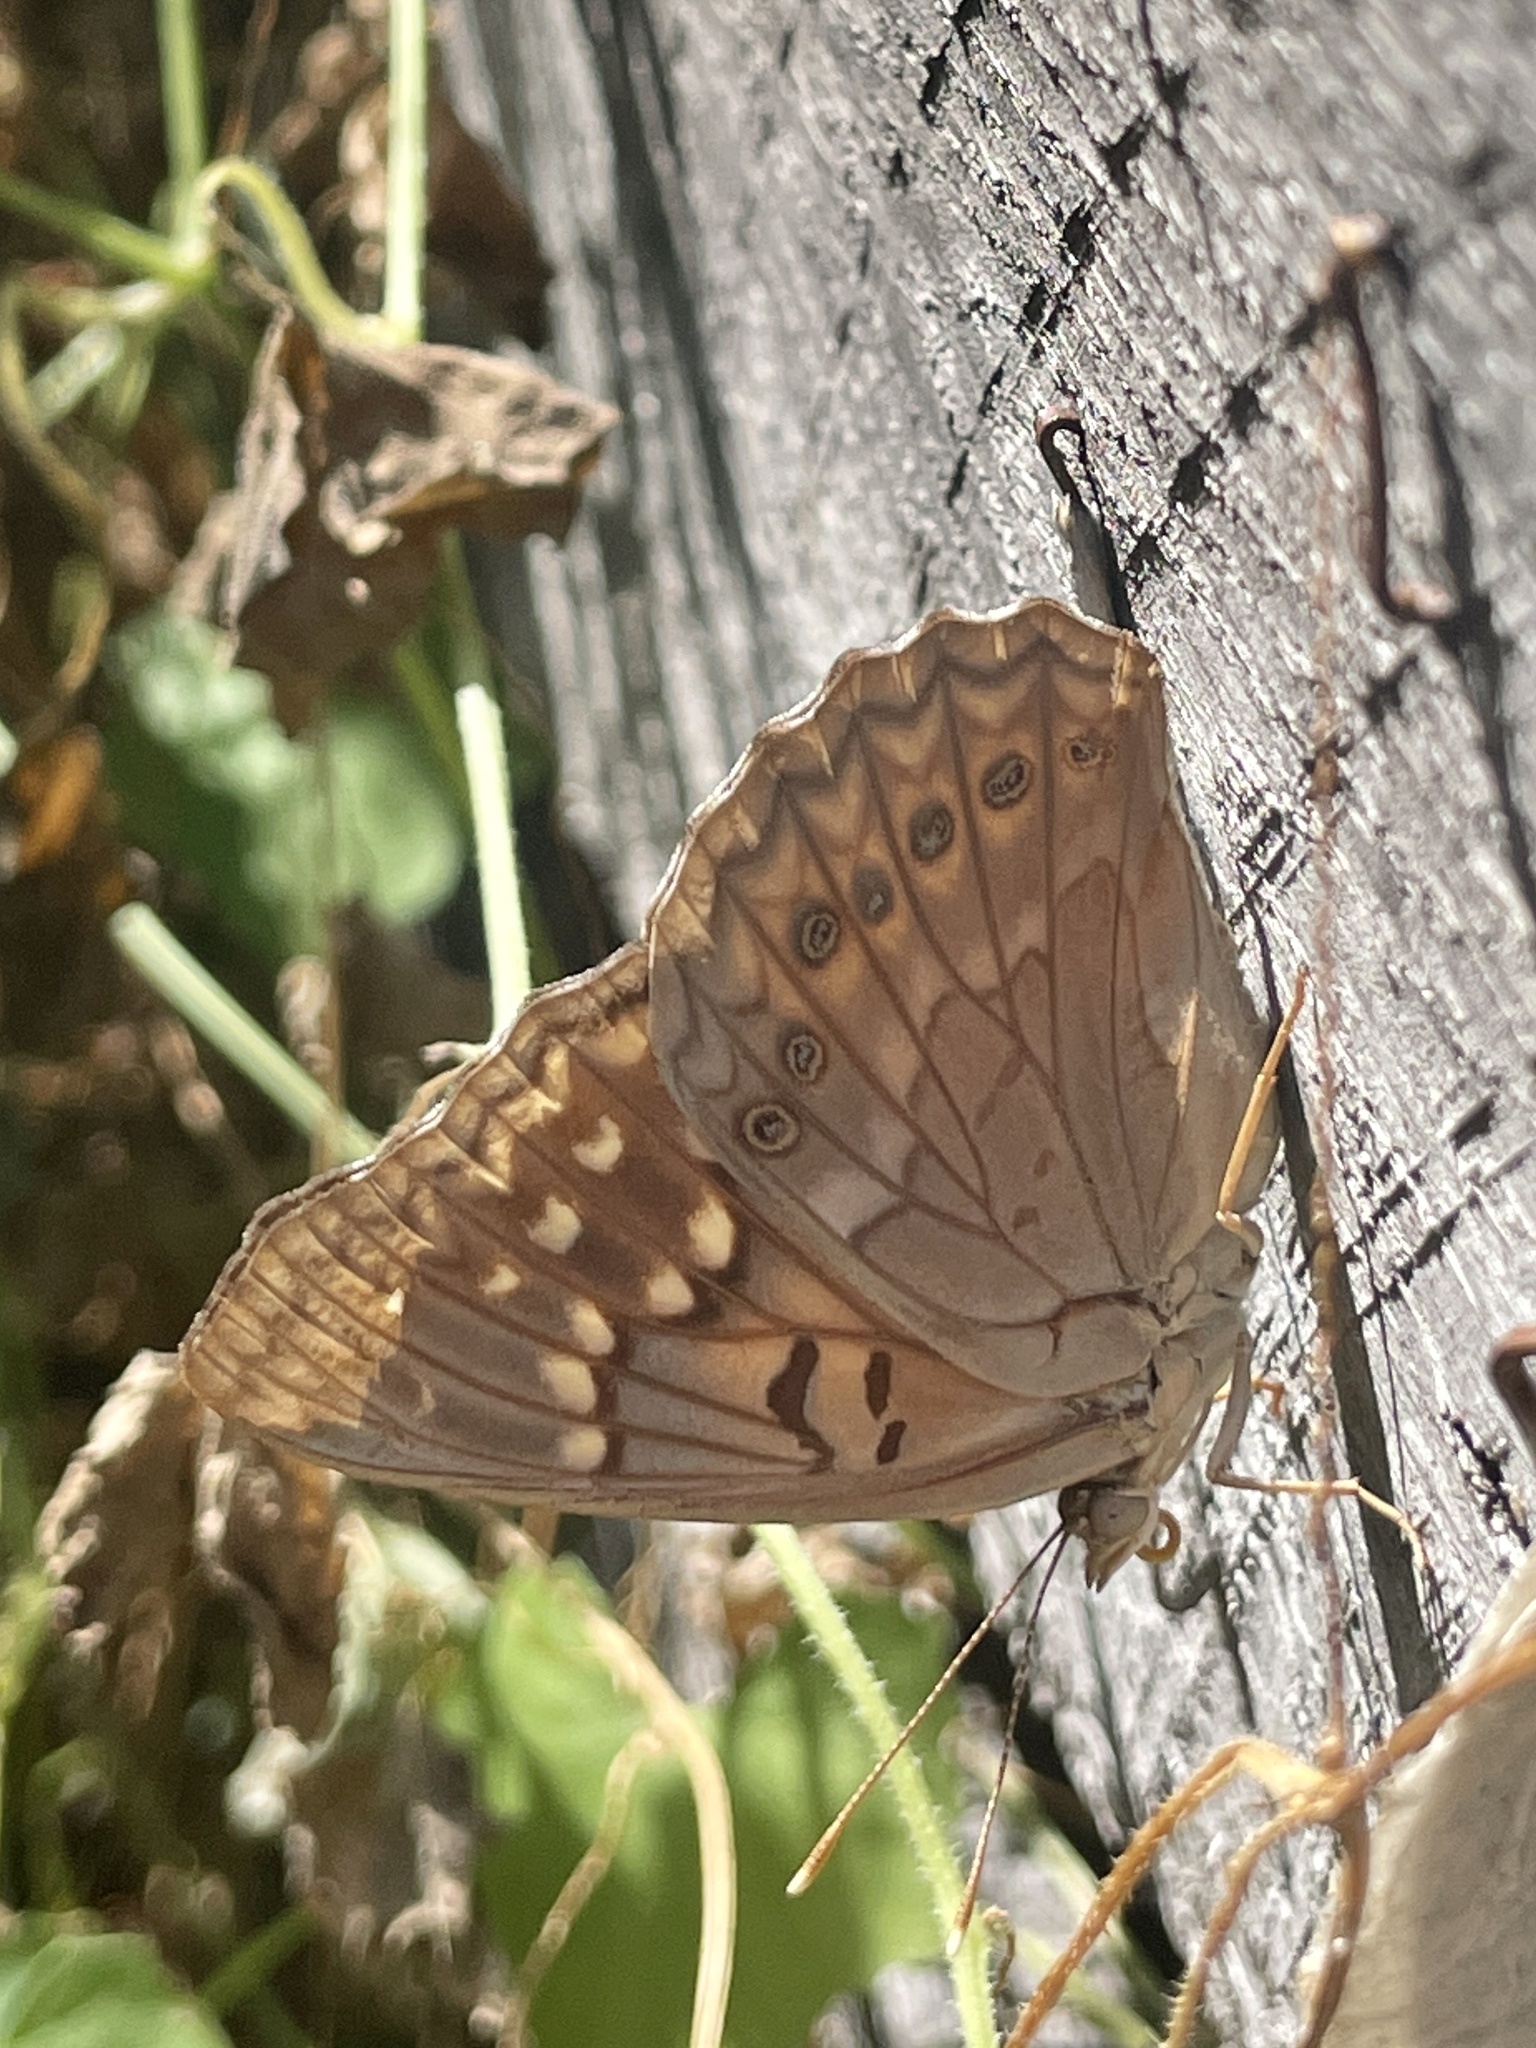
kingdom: Animalia
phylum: Arthropoda
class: Insecta
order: Lepidoptera
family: Nymphalidae
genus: Asterocampa
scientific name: Asterocampa clyton
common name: Tawny emperor
